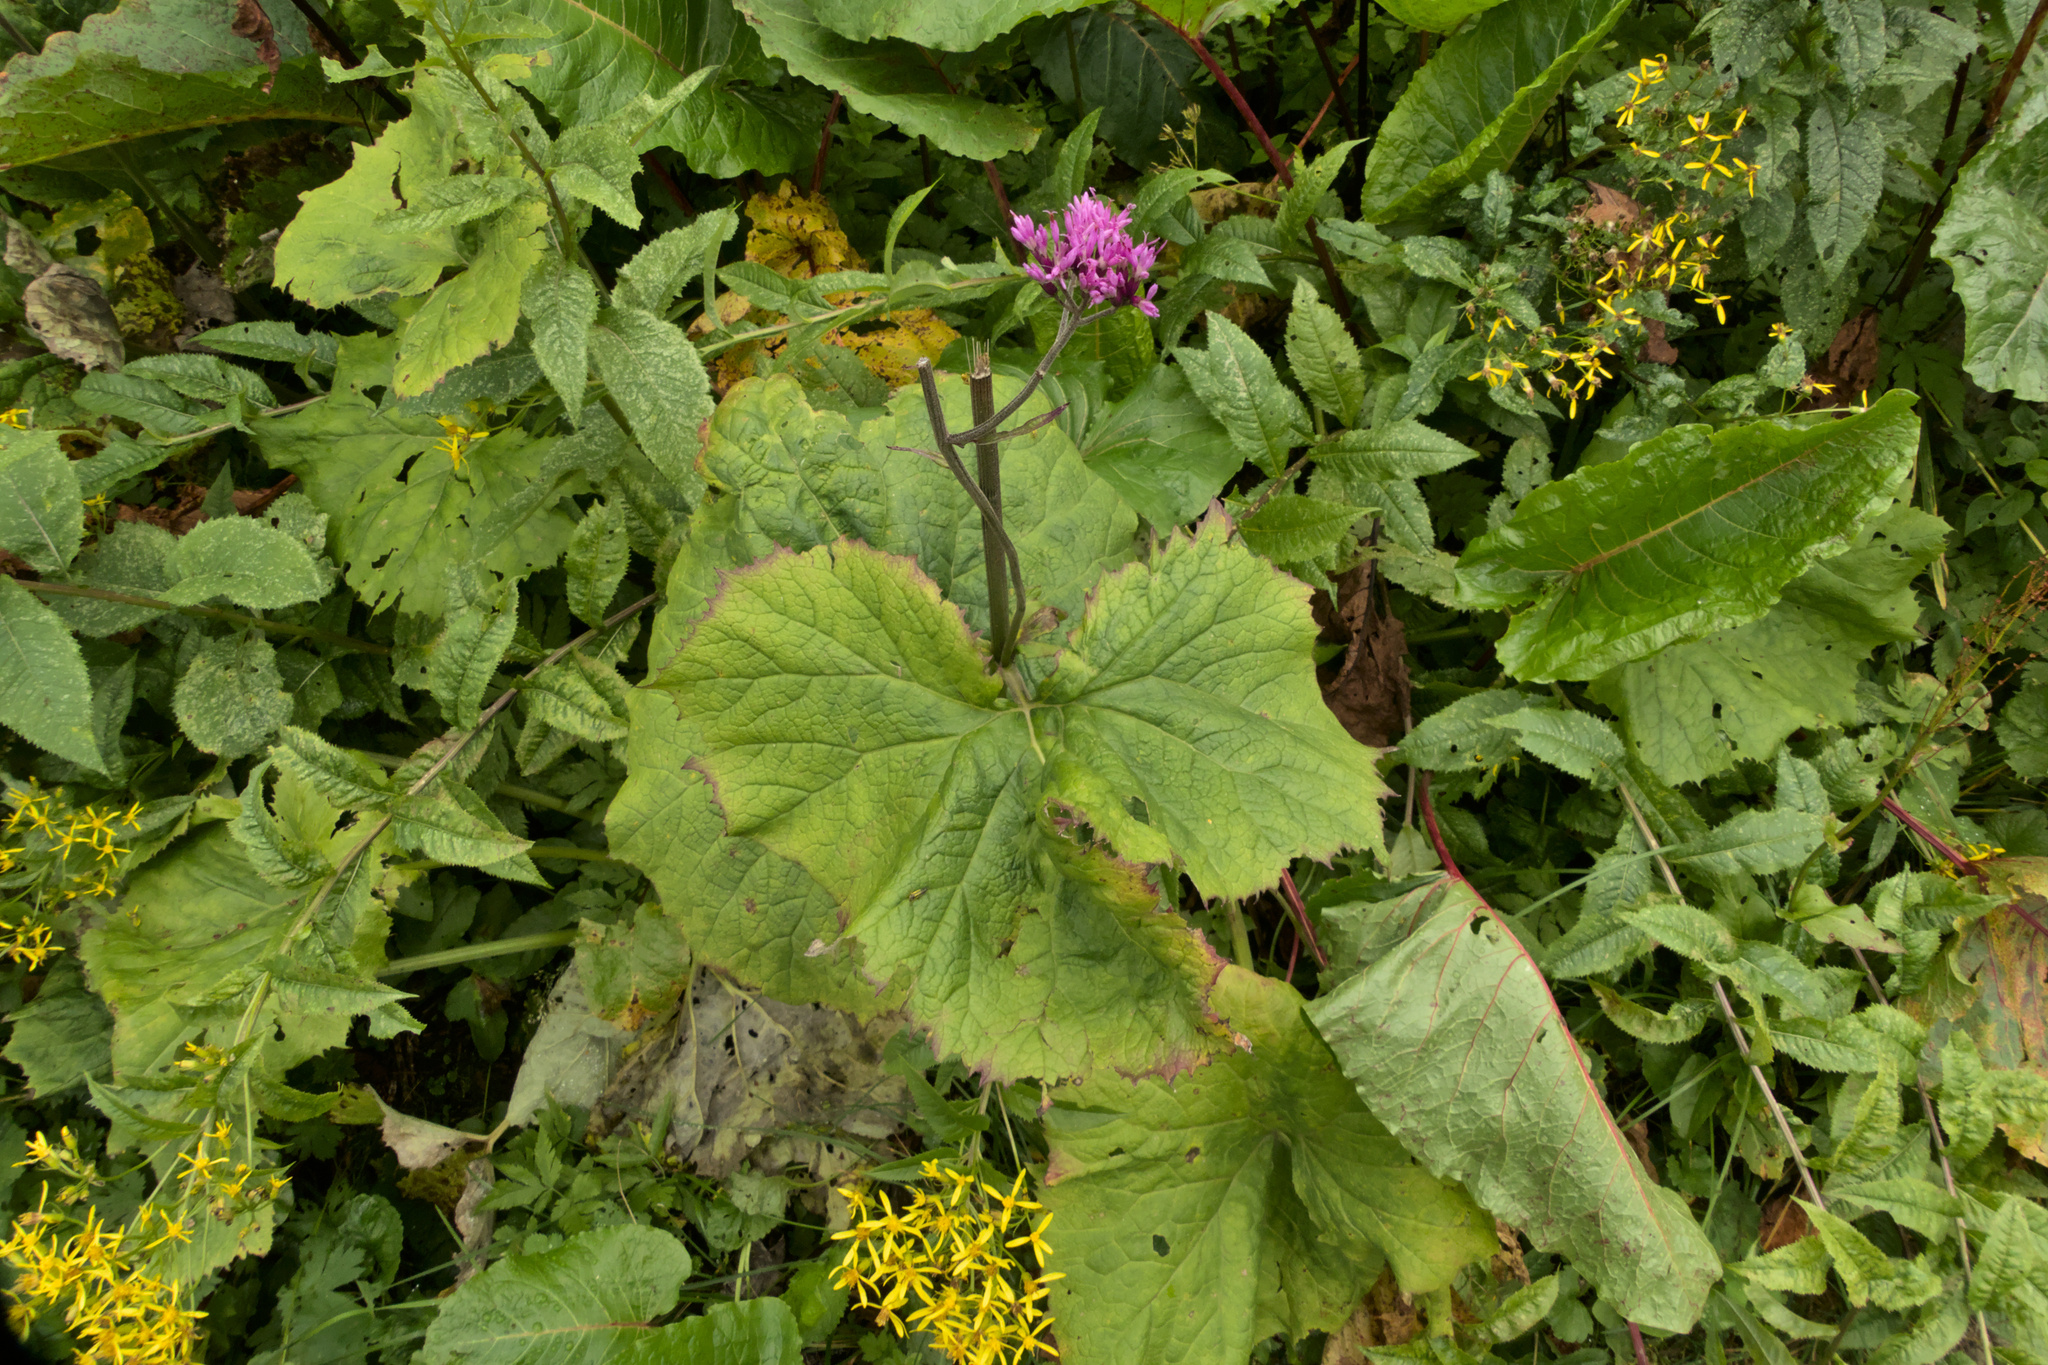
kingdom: Plantae
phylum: Tracheophyta
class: Magnoliopsida
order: Asterales
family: Asteraceae
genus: Adenostyles
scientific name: Adenostyles alliariae
